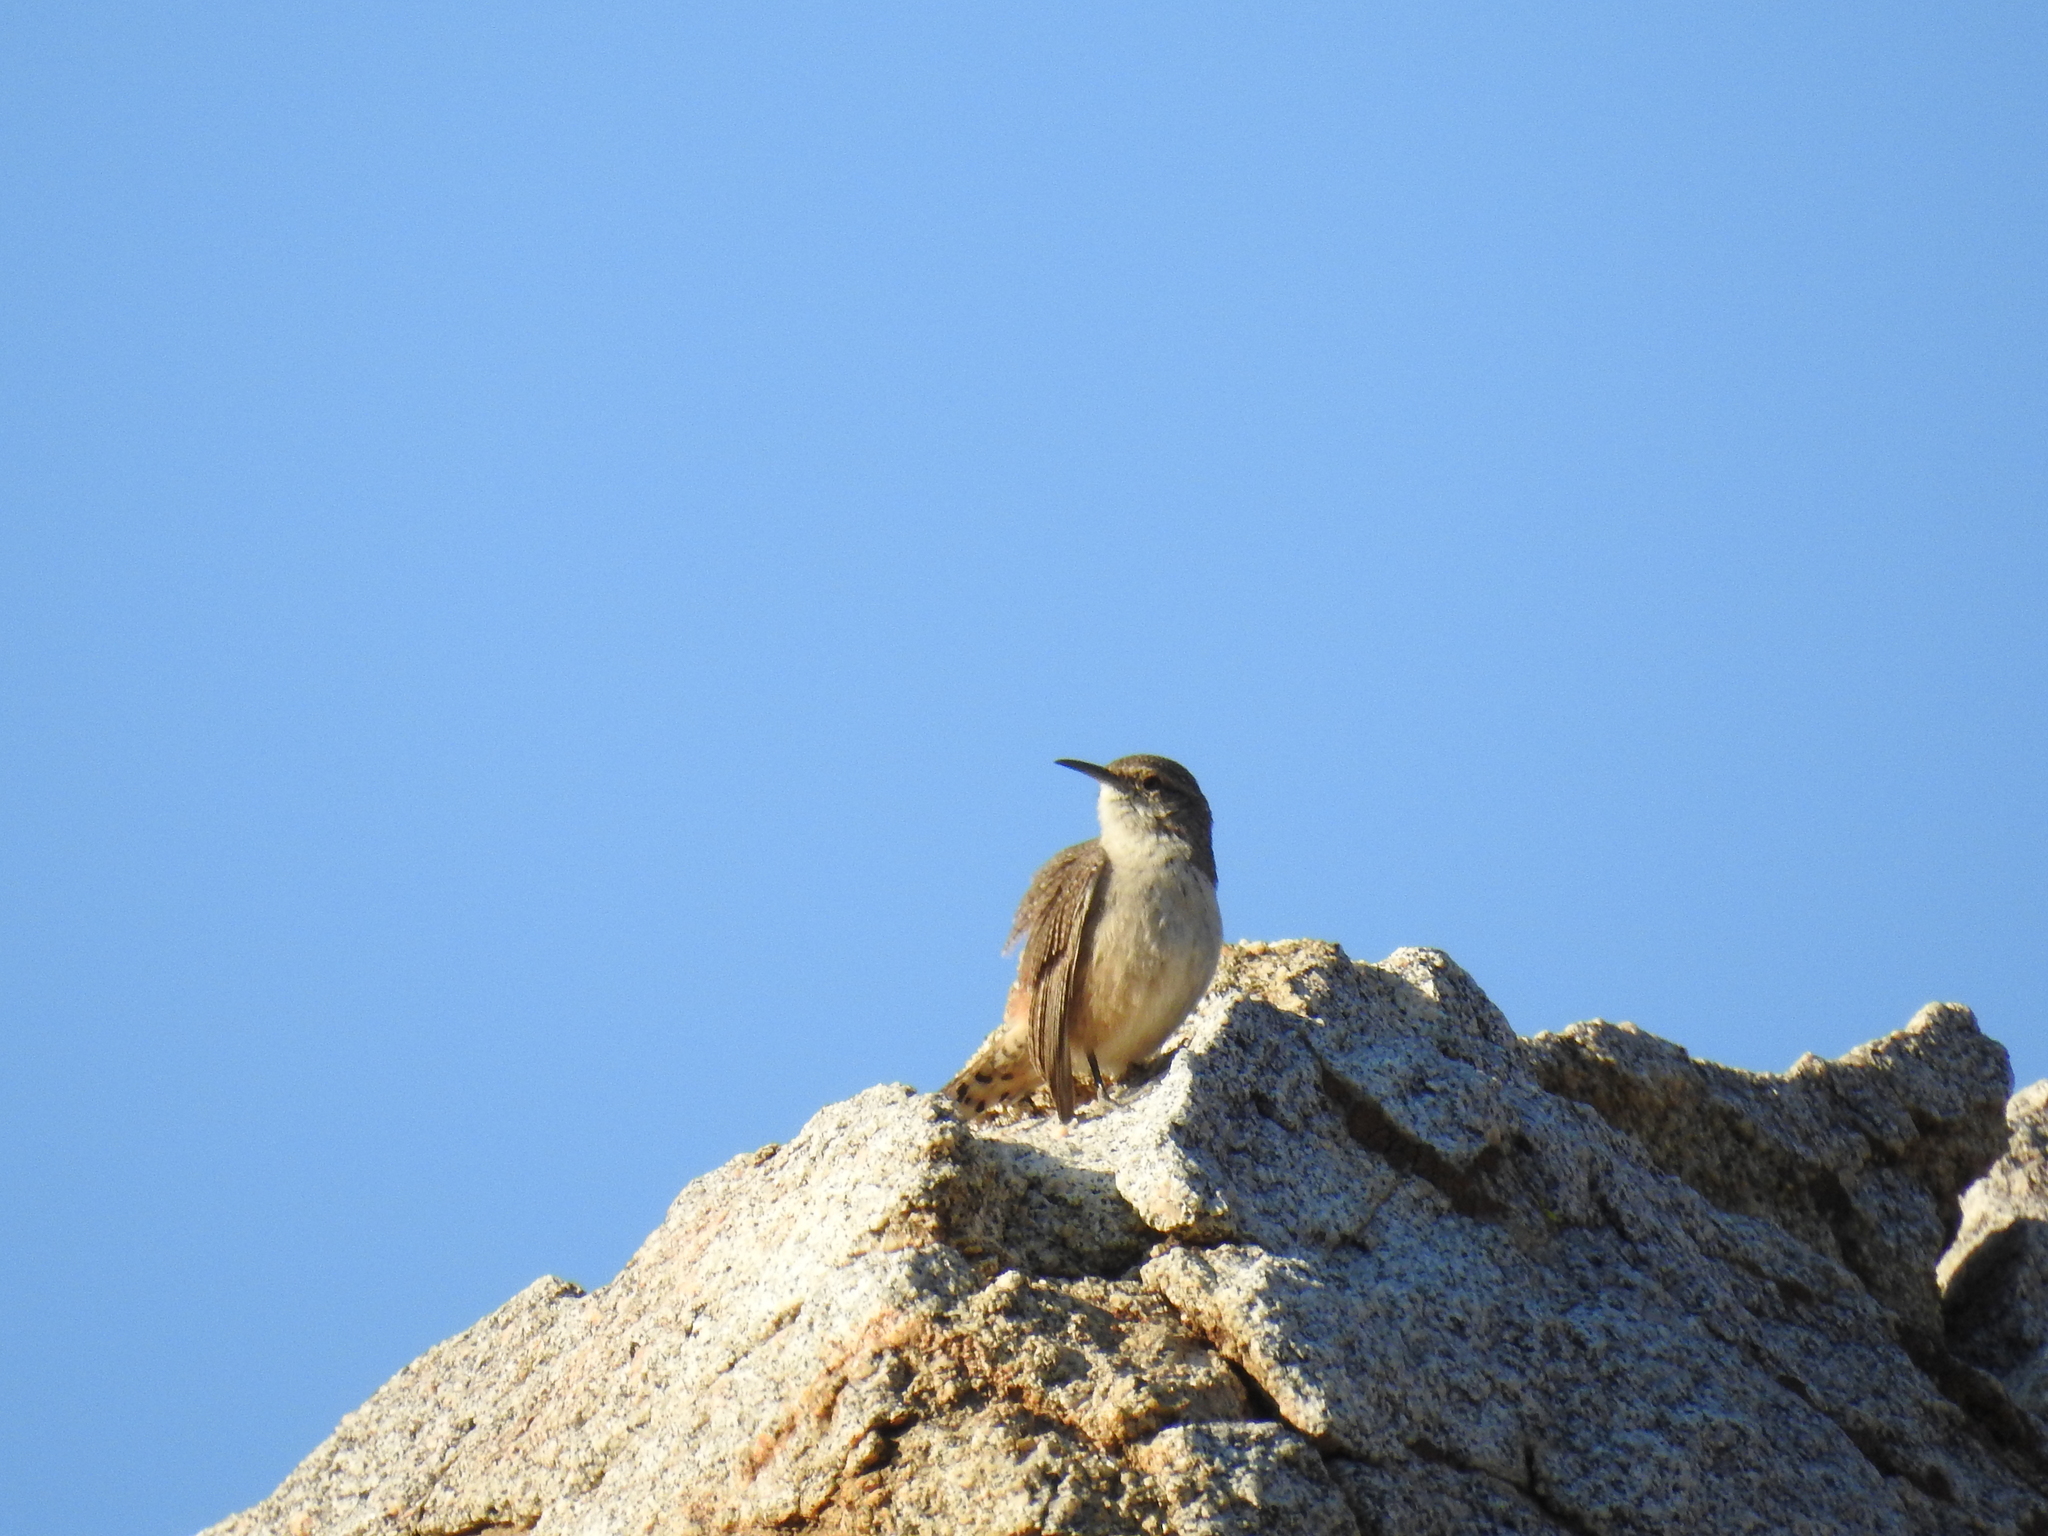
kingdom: Animalia
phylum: Chordata
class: Aves
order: Passeriformes
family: Troglodytidae
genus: Salpinctes
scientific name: Salpinctes obsoletus
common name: Rock wren
